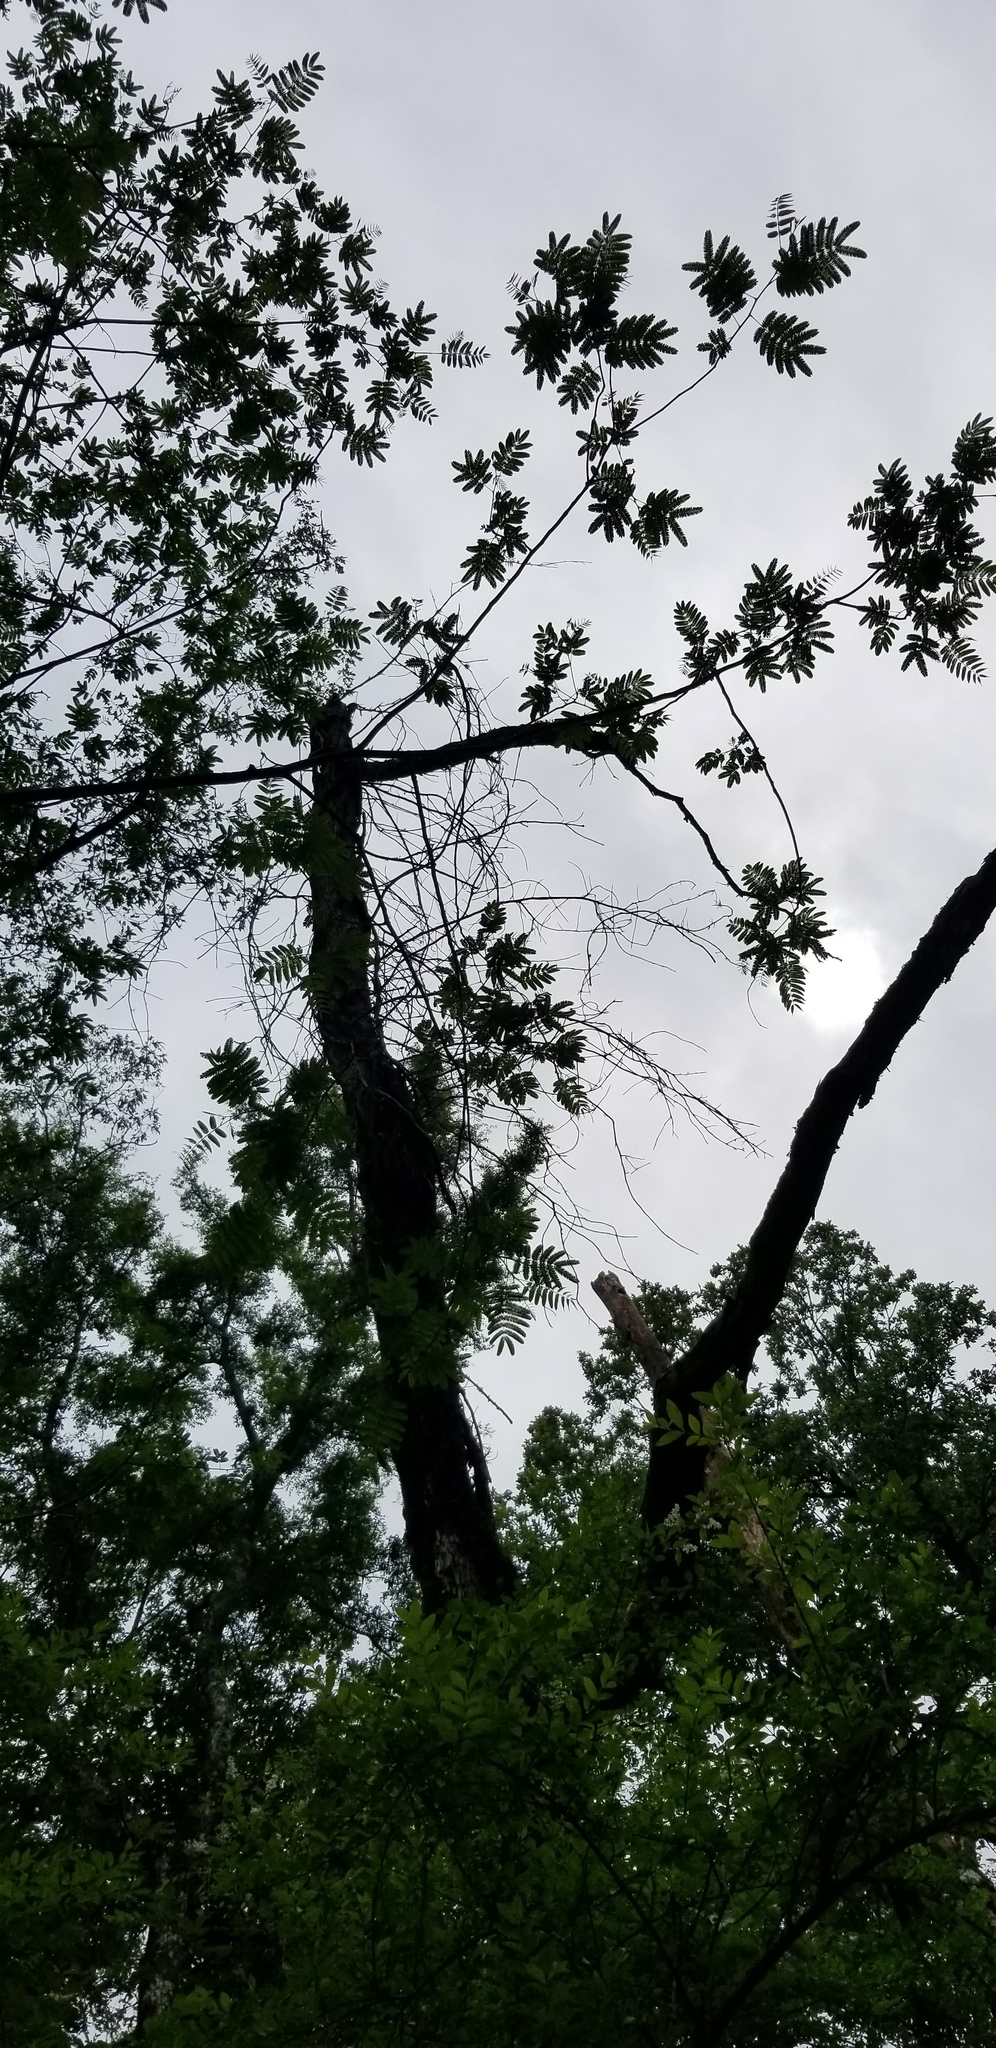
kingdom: Plantae
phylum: Tracheophyta
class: Magnoliopsida
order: Fabales
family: Fabaceae
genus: Albizia
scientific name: Albizia julibrissin
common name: Silktree
